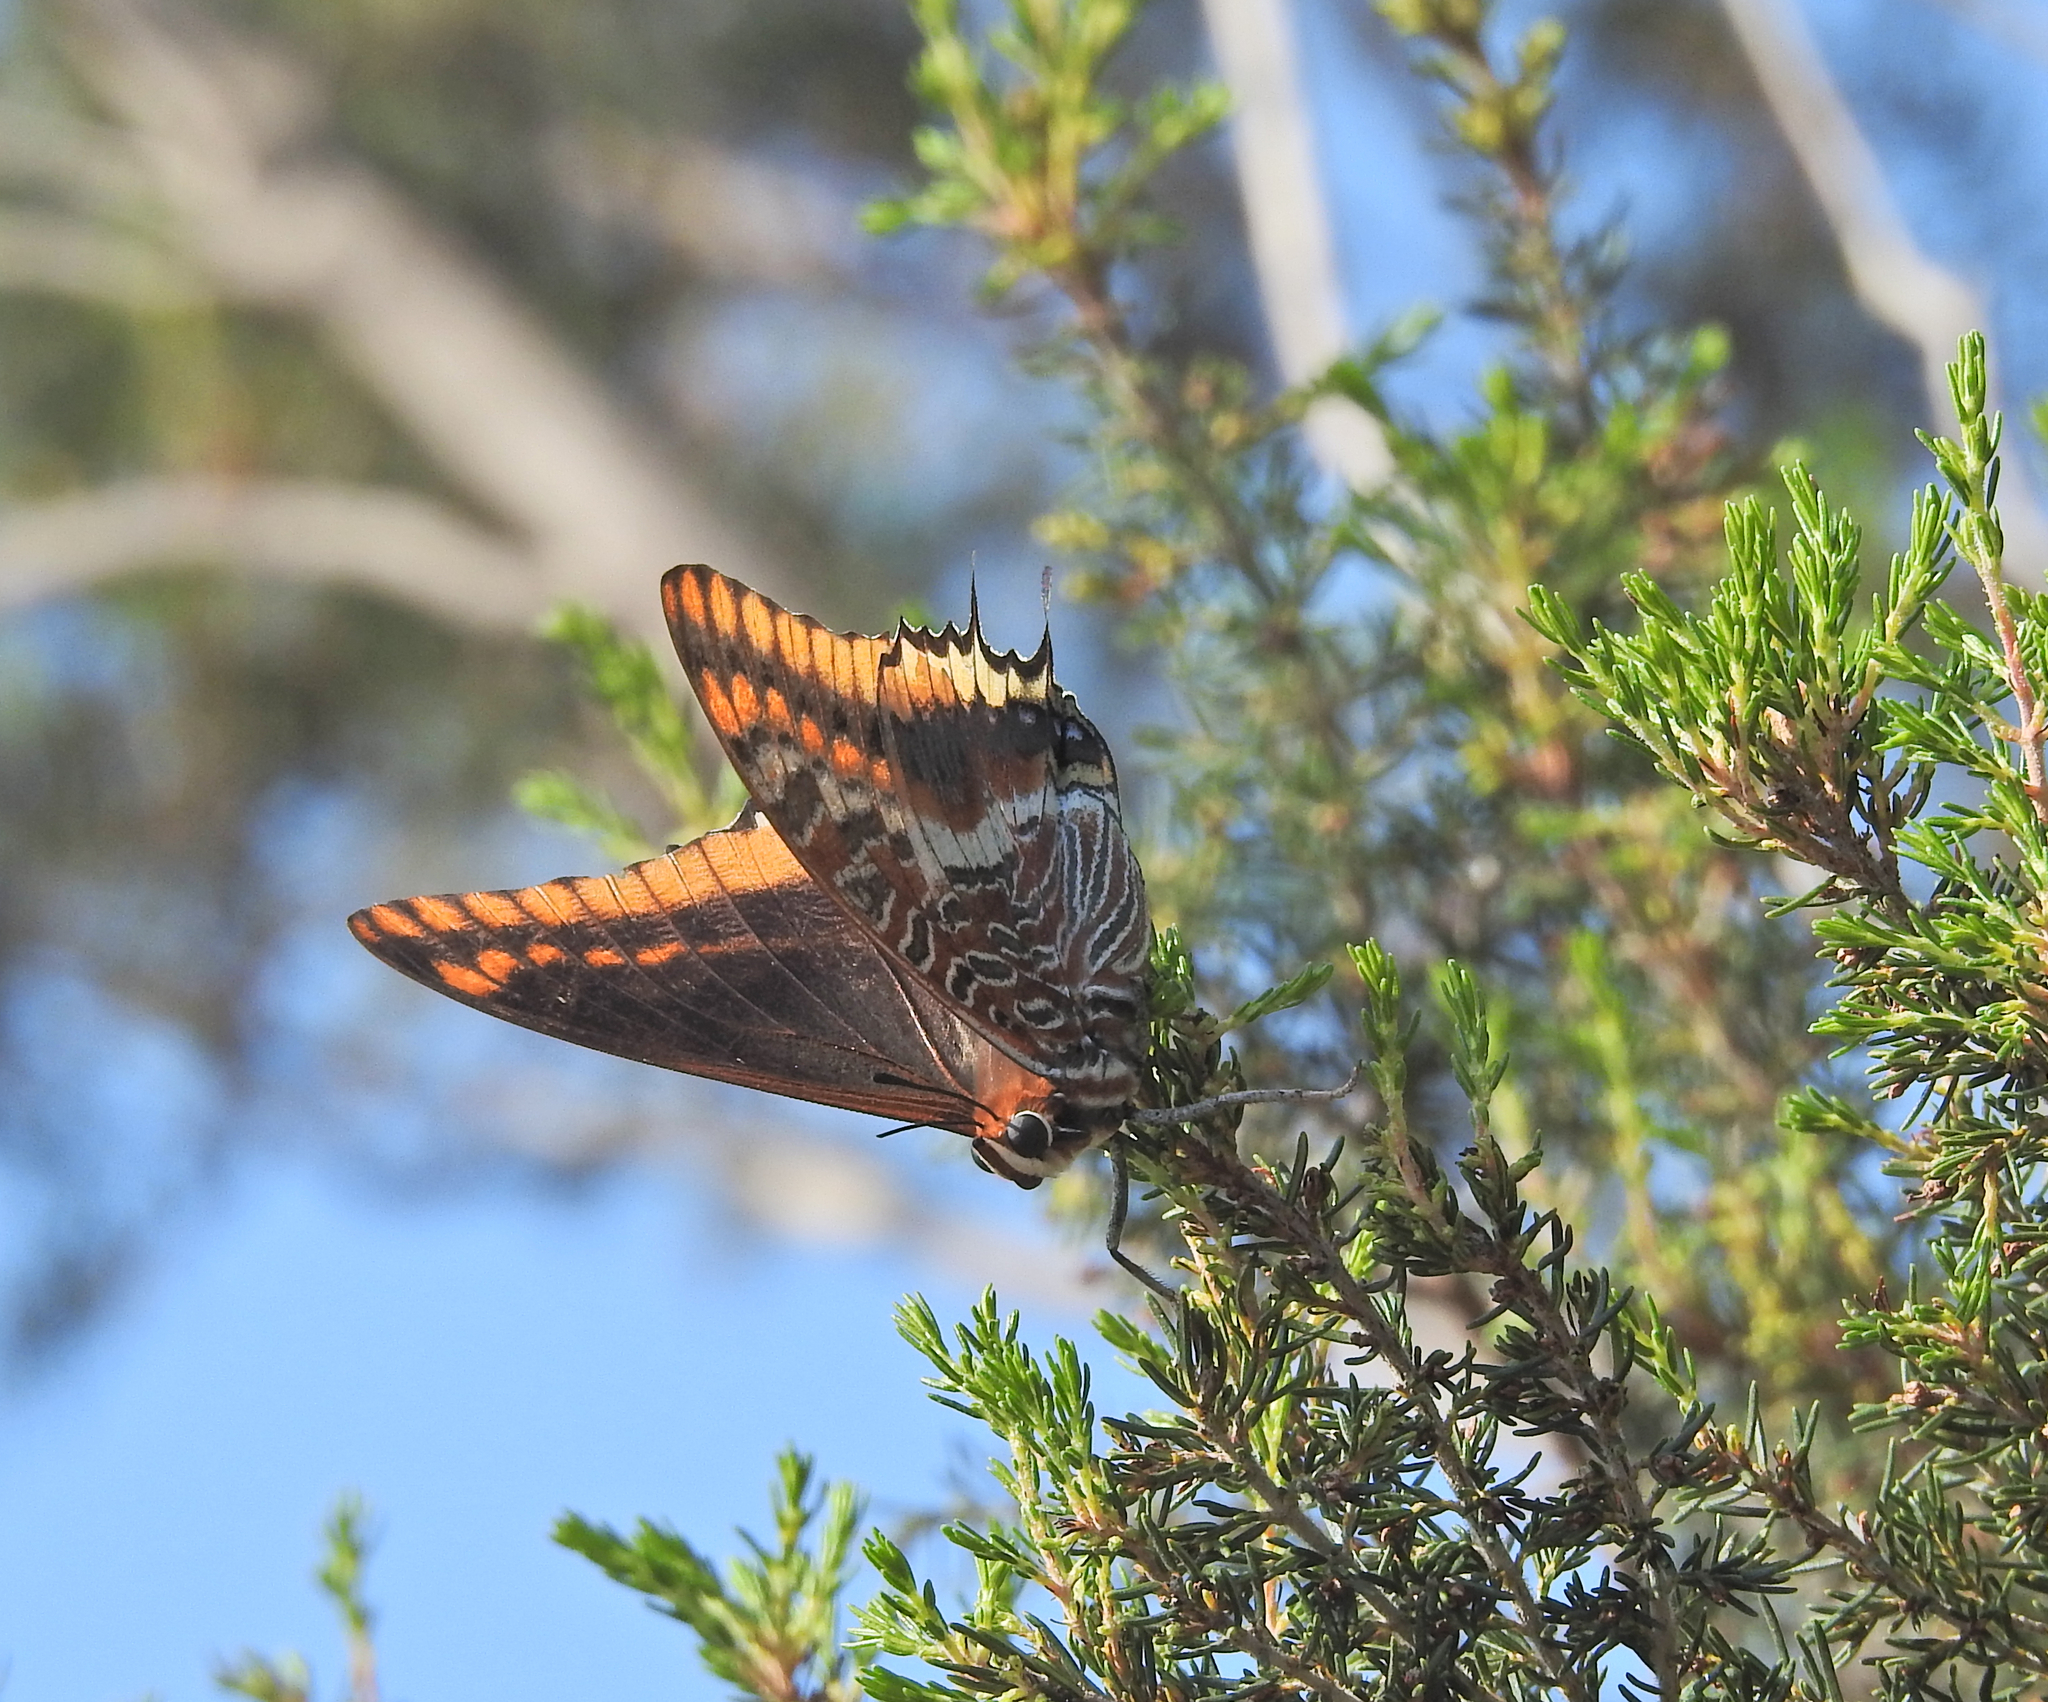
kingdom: Animalia
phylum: Arthropoda
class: Insecta
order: Lepidoptera
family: Nymphalidae
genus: Charaxes
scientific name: Charaxes jasius
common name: Two tailed pasha
